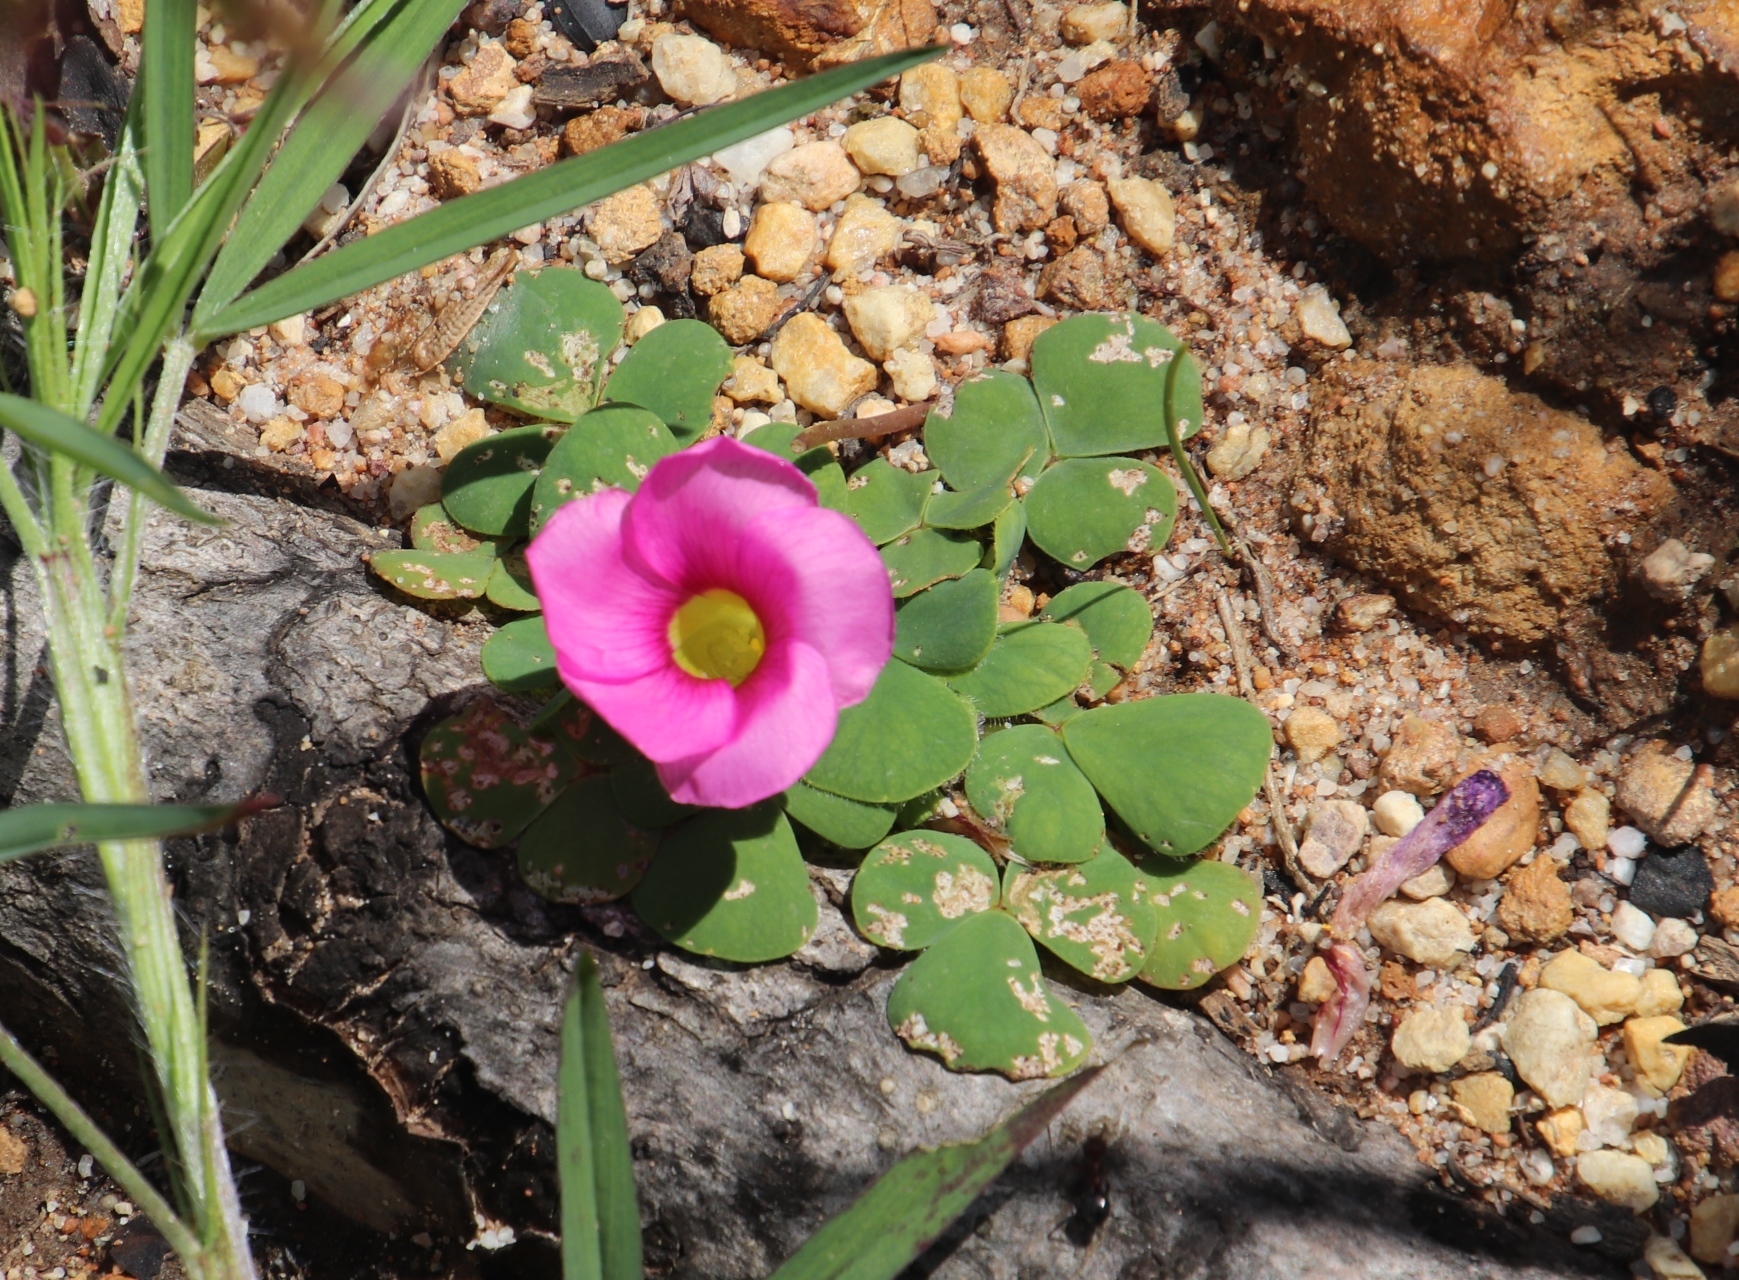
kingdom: Plantae
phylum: Tracheophyta
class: Magnoliopsida
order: Oxalidales
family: Oxalidaceae
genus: Oxalis
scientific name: Oxalis purpurea
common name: Purple woodsorrel
